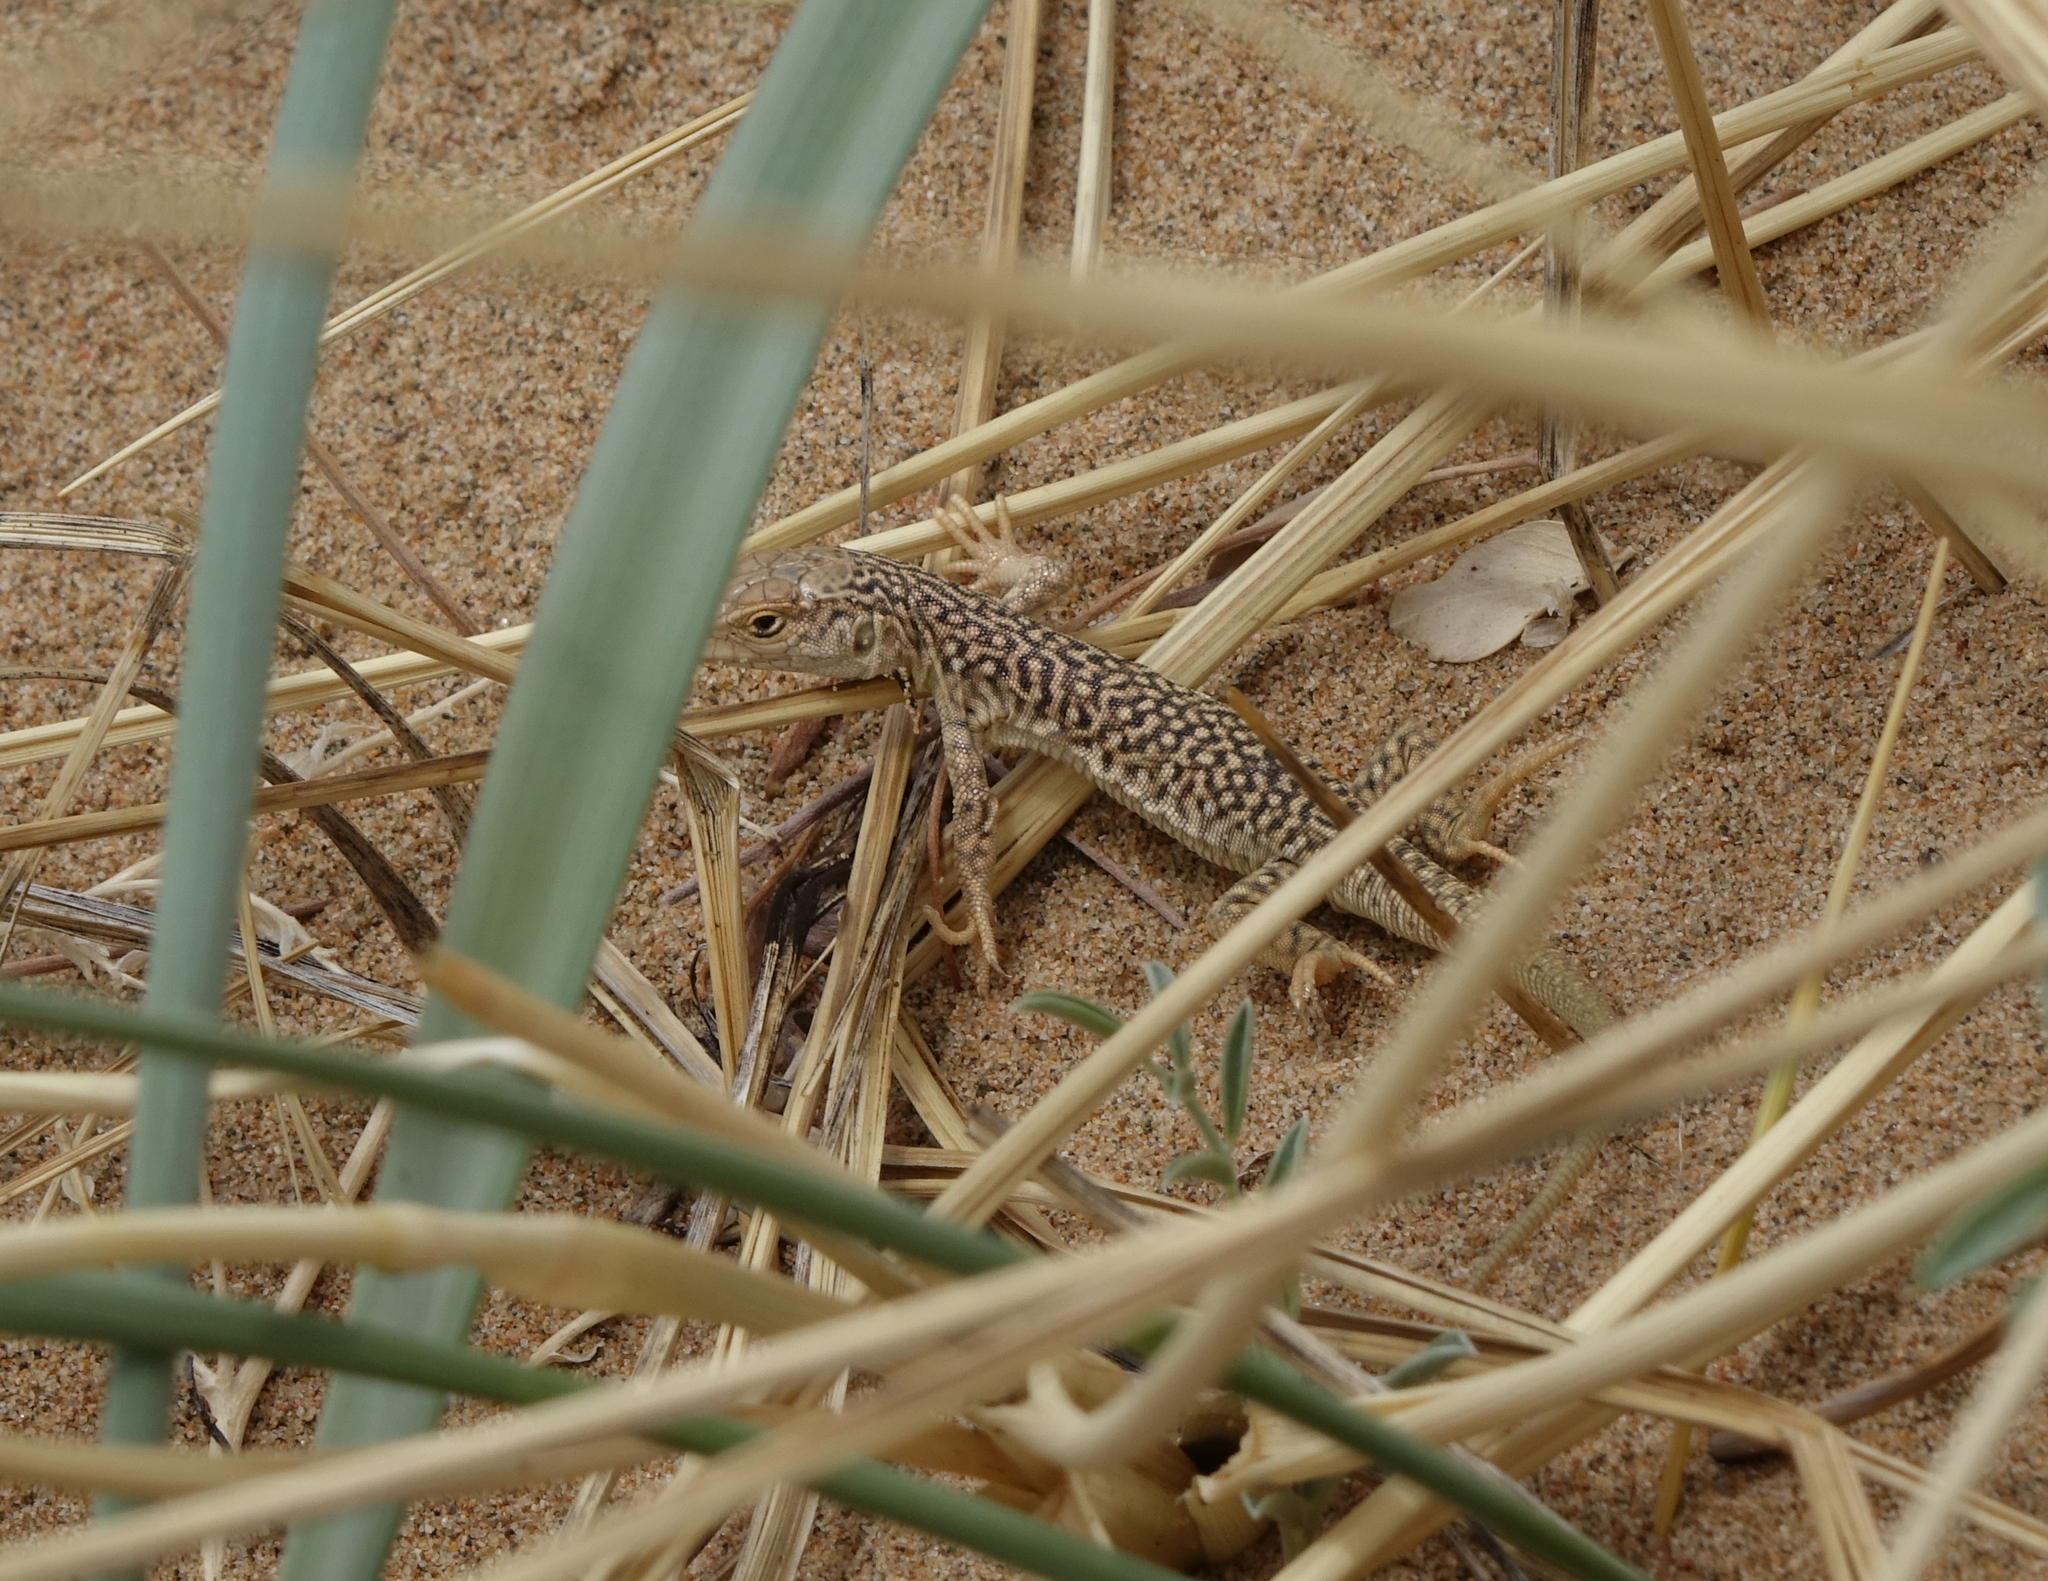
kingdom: Animalia
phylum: Chordata
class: Squamata
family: Lacertidae
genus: Eremias
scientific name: Eremias przewalskii
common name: Gobi racerunner
